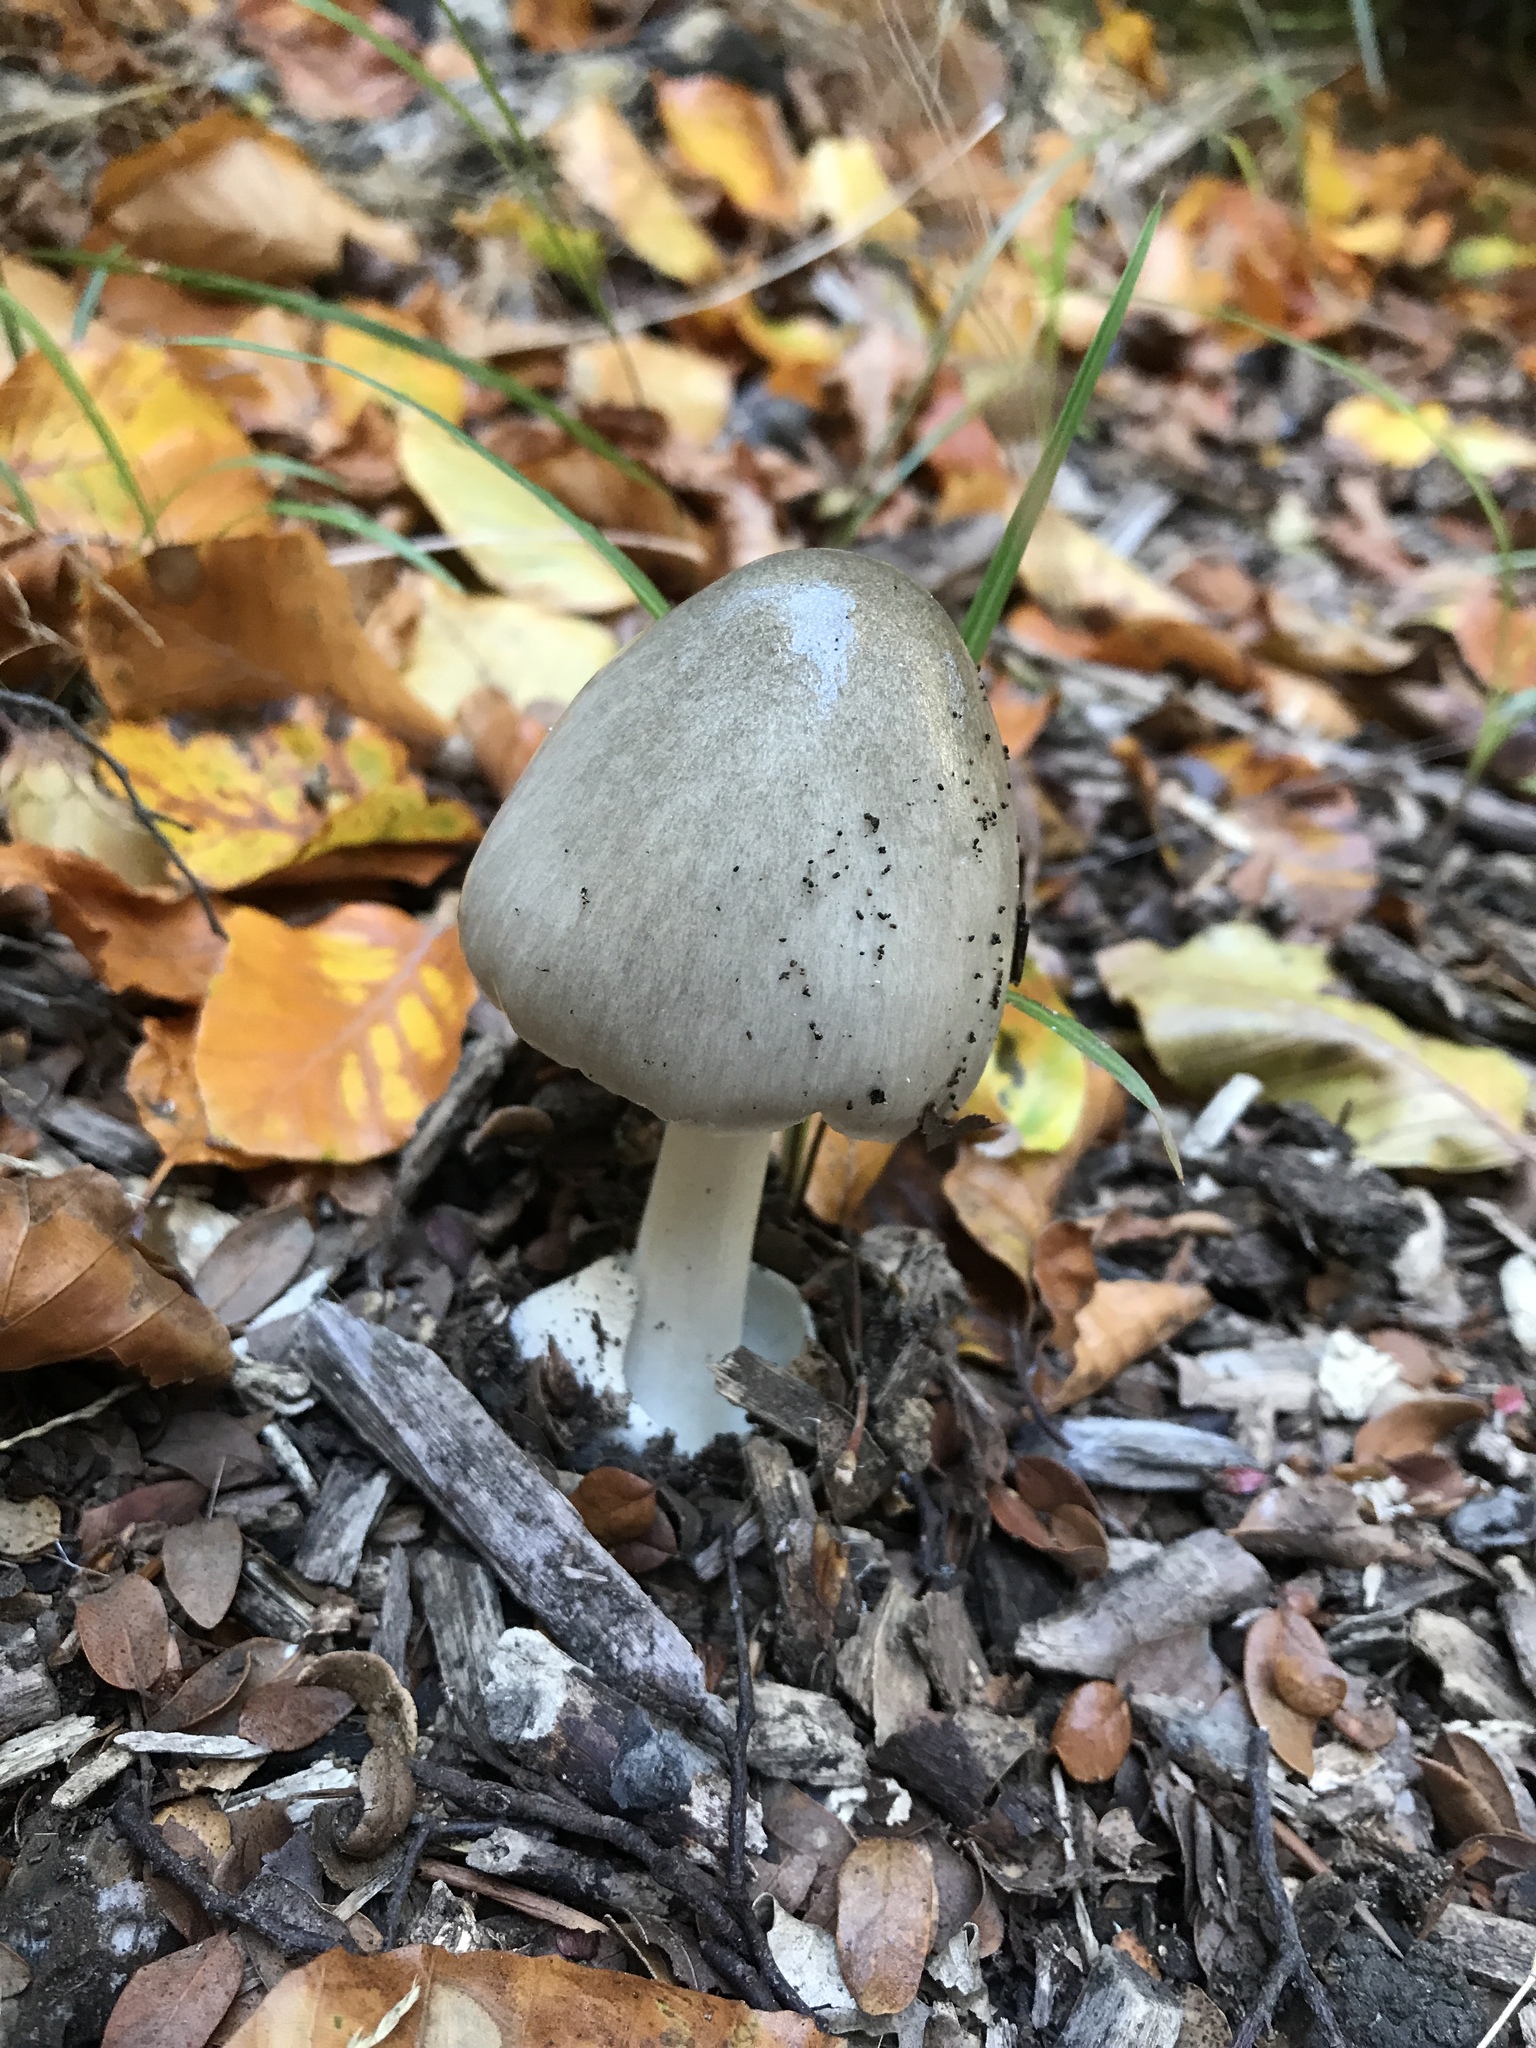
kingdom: Fungi
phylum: Basidiomycota
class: Agaricomycetes
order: Agaricales
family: Pluteaceae
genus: Volvopluteus
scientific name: Volvopluteus gloiocephalus
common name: Stubble rosegill
